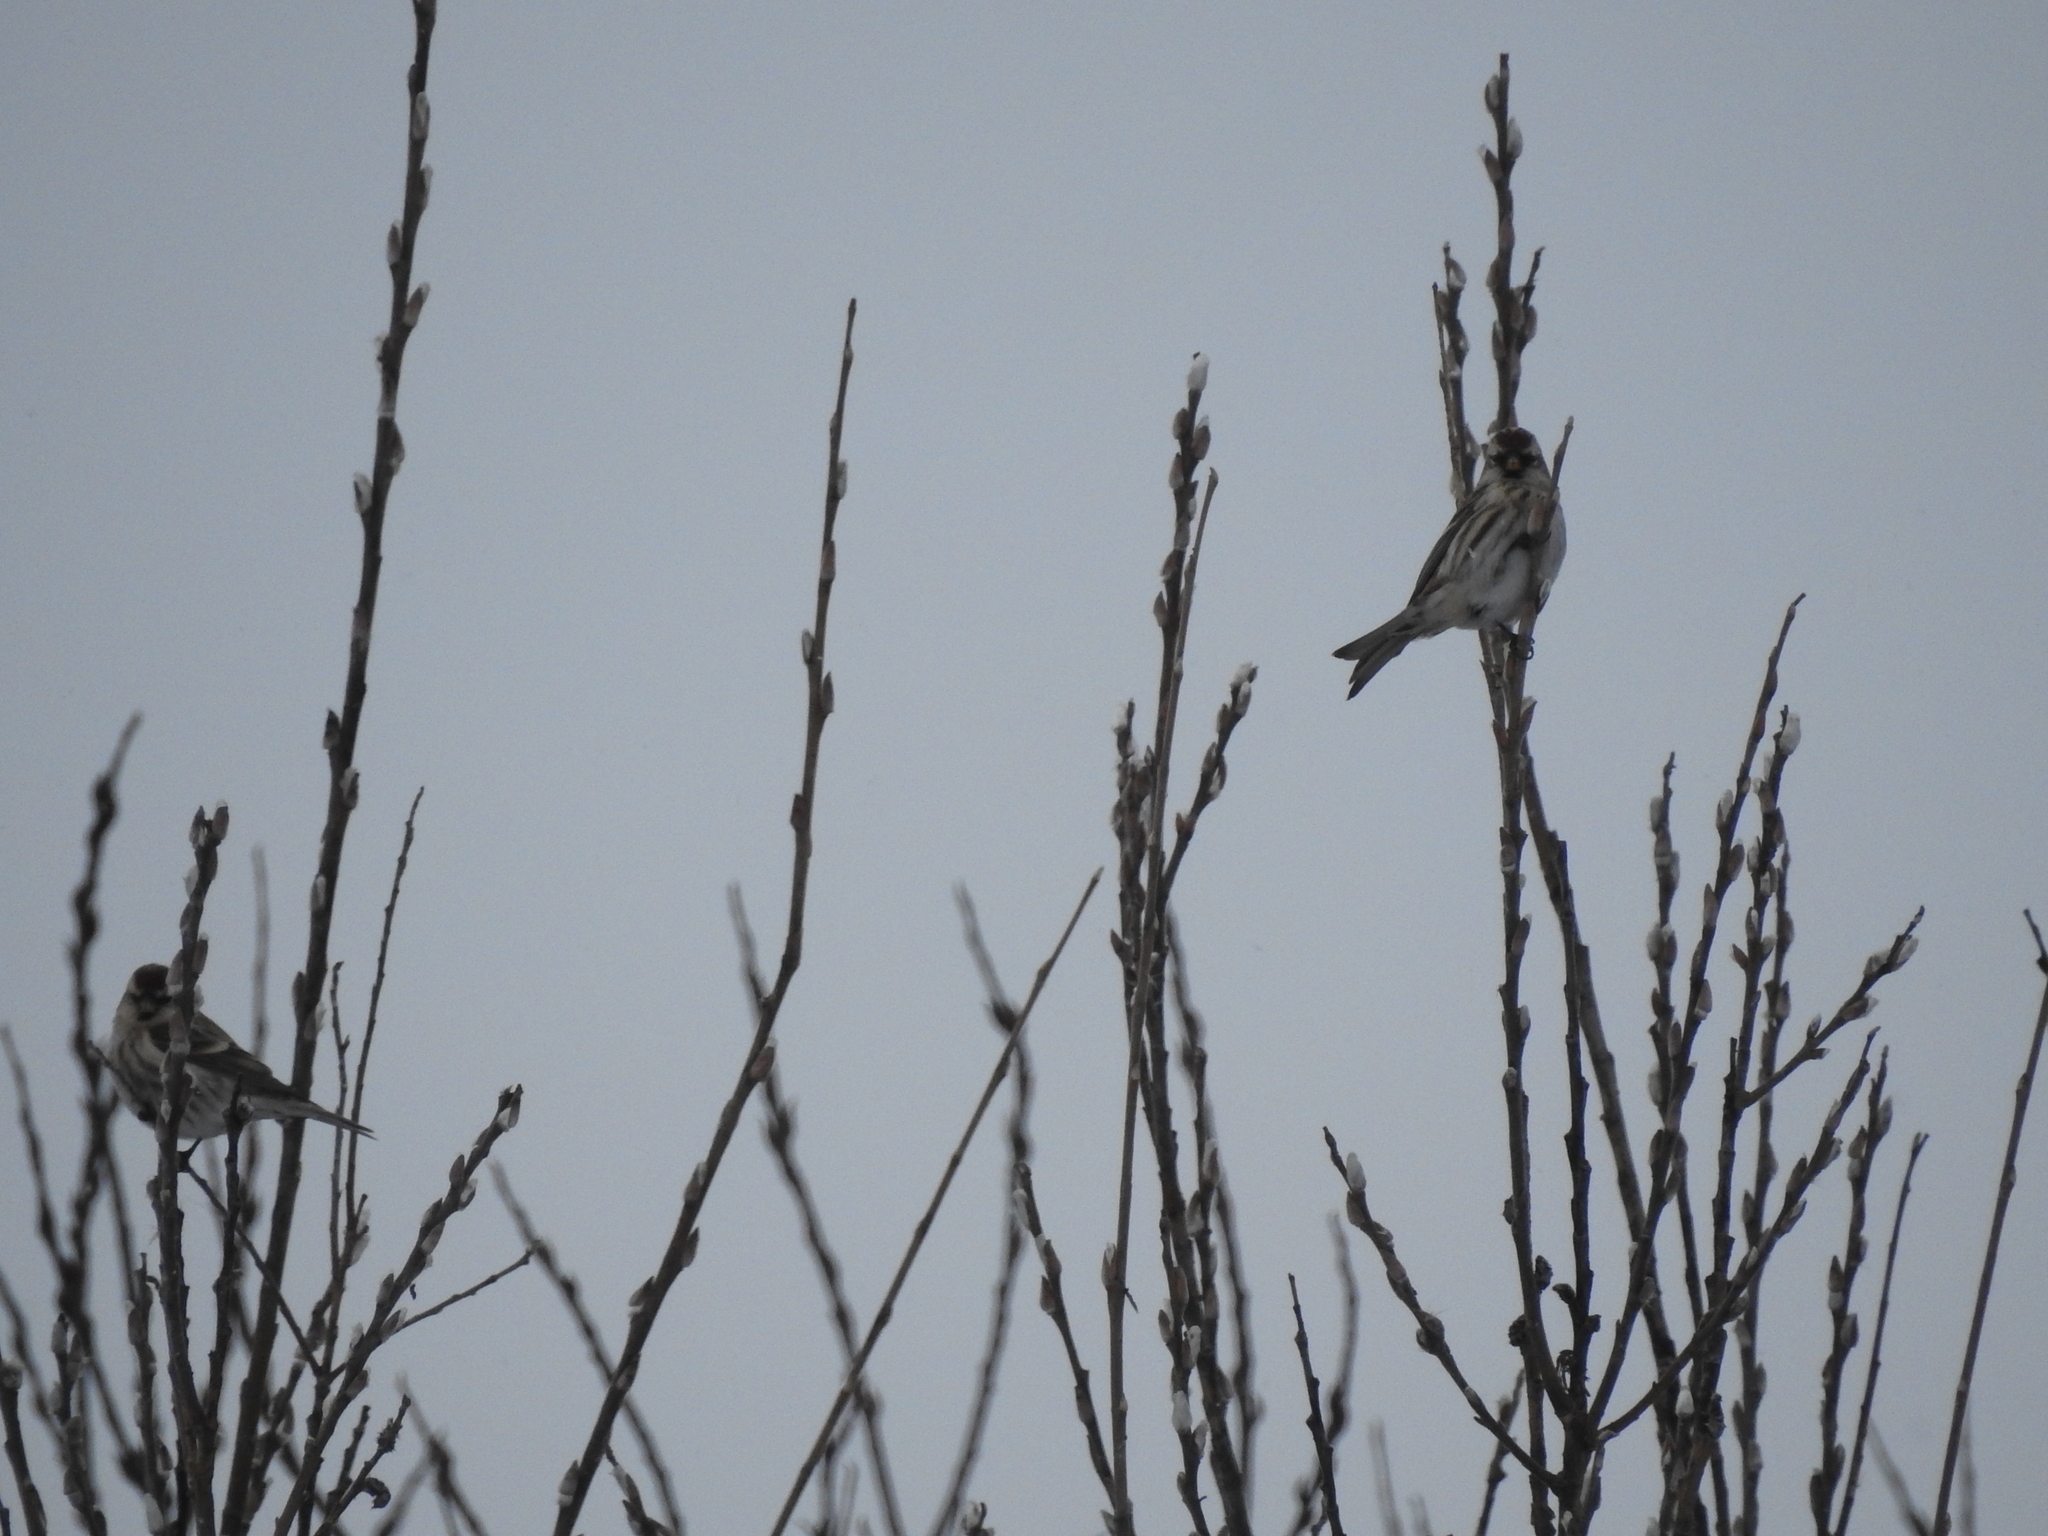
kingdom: Animalia
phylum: Chordata
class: Aves
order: Passeriformes
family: Fringillidae
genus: Acanthis
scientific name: Acanthis flammea
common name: Common redpoll
